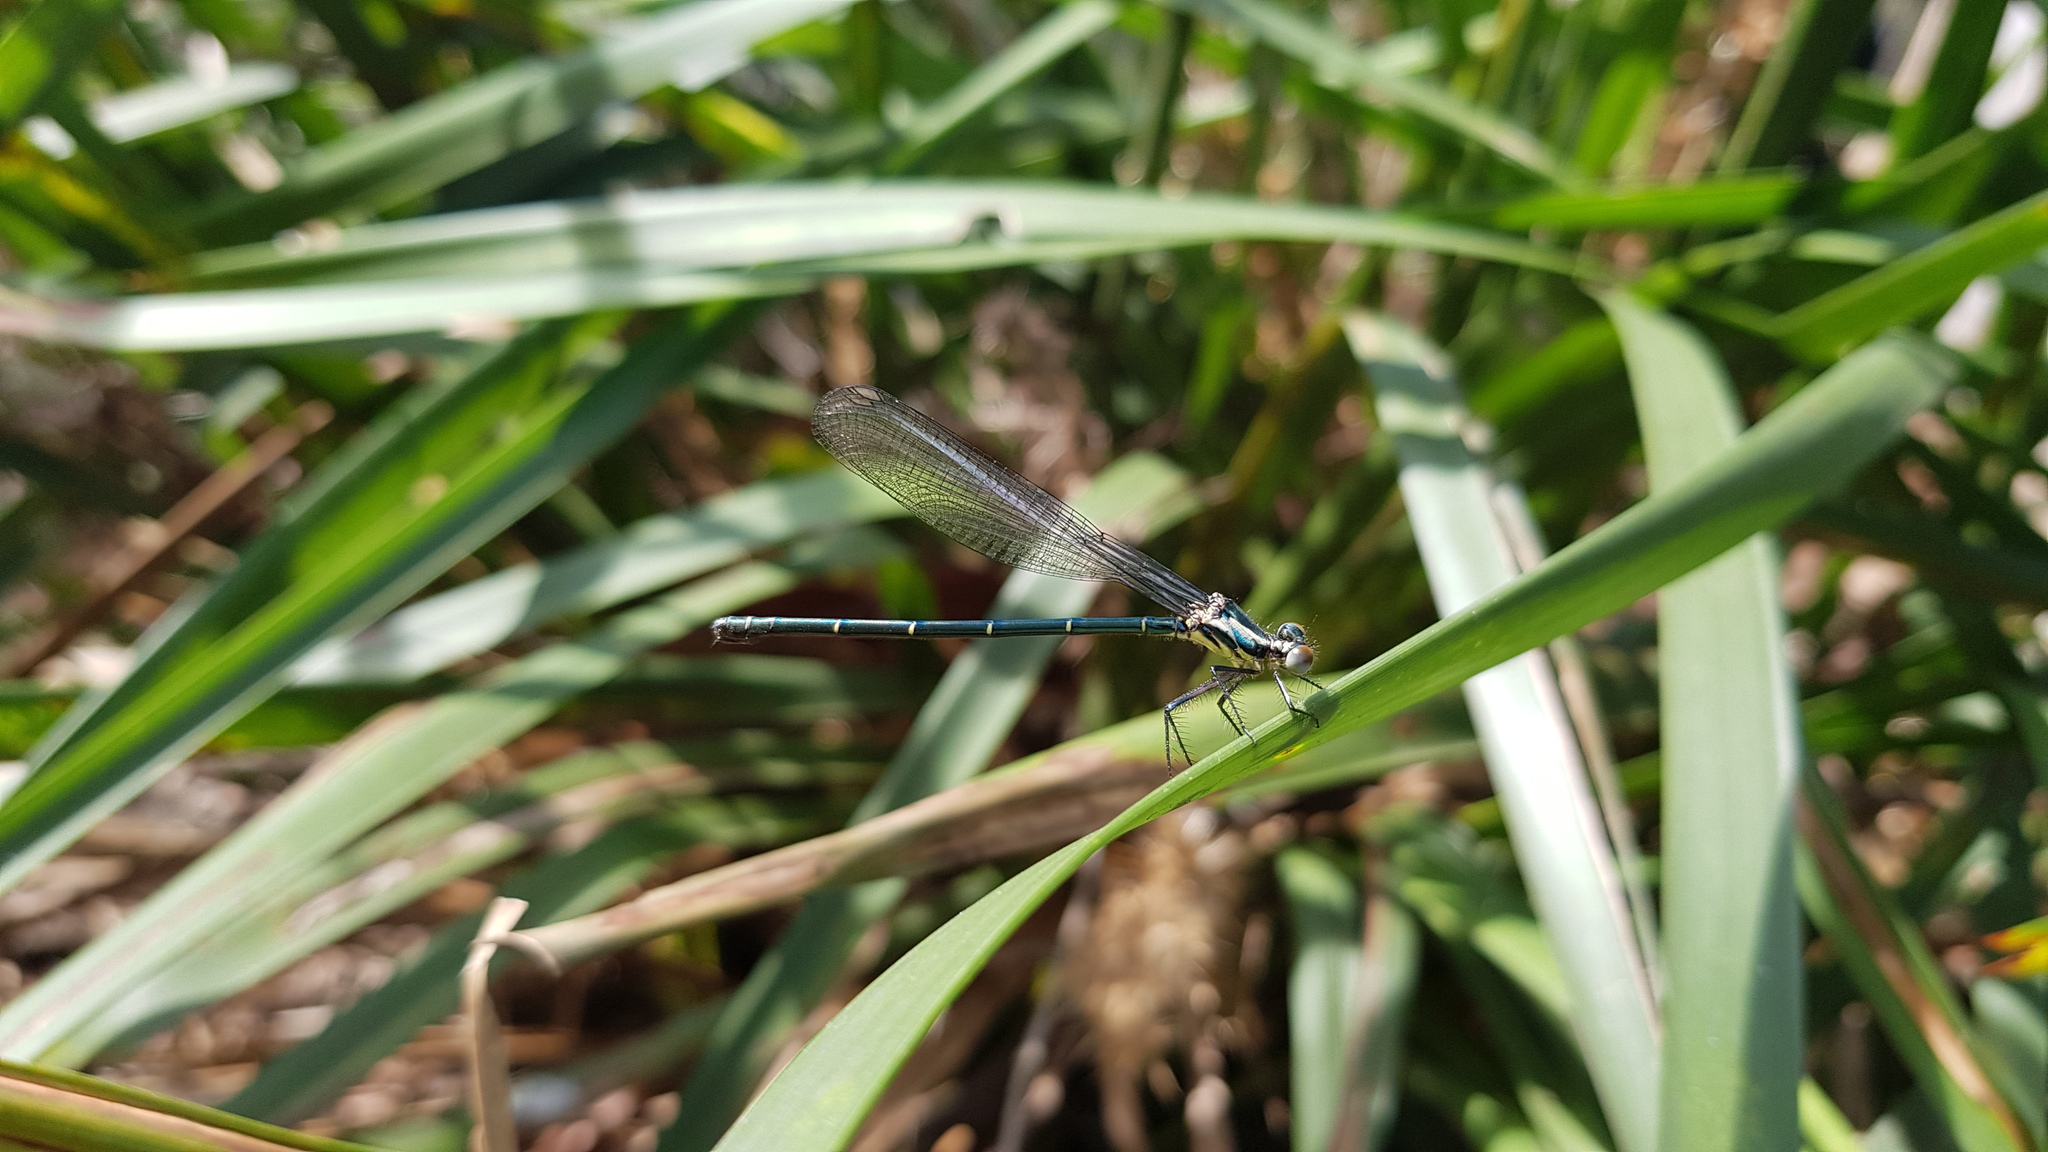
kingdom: Animalia
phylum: Arthropoda
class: Insecta
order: Odonata
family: Argiolestidae
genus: Austroargiolestes
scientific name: Austroargiolestes icteromelas
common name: Common flatwing
